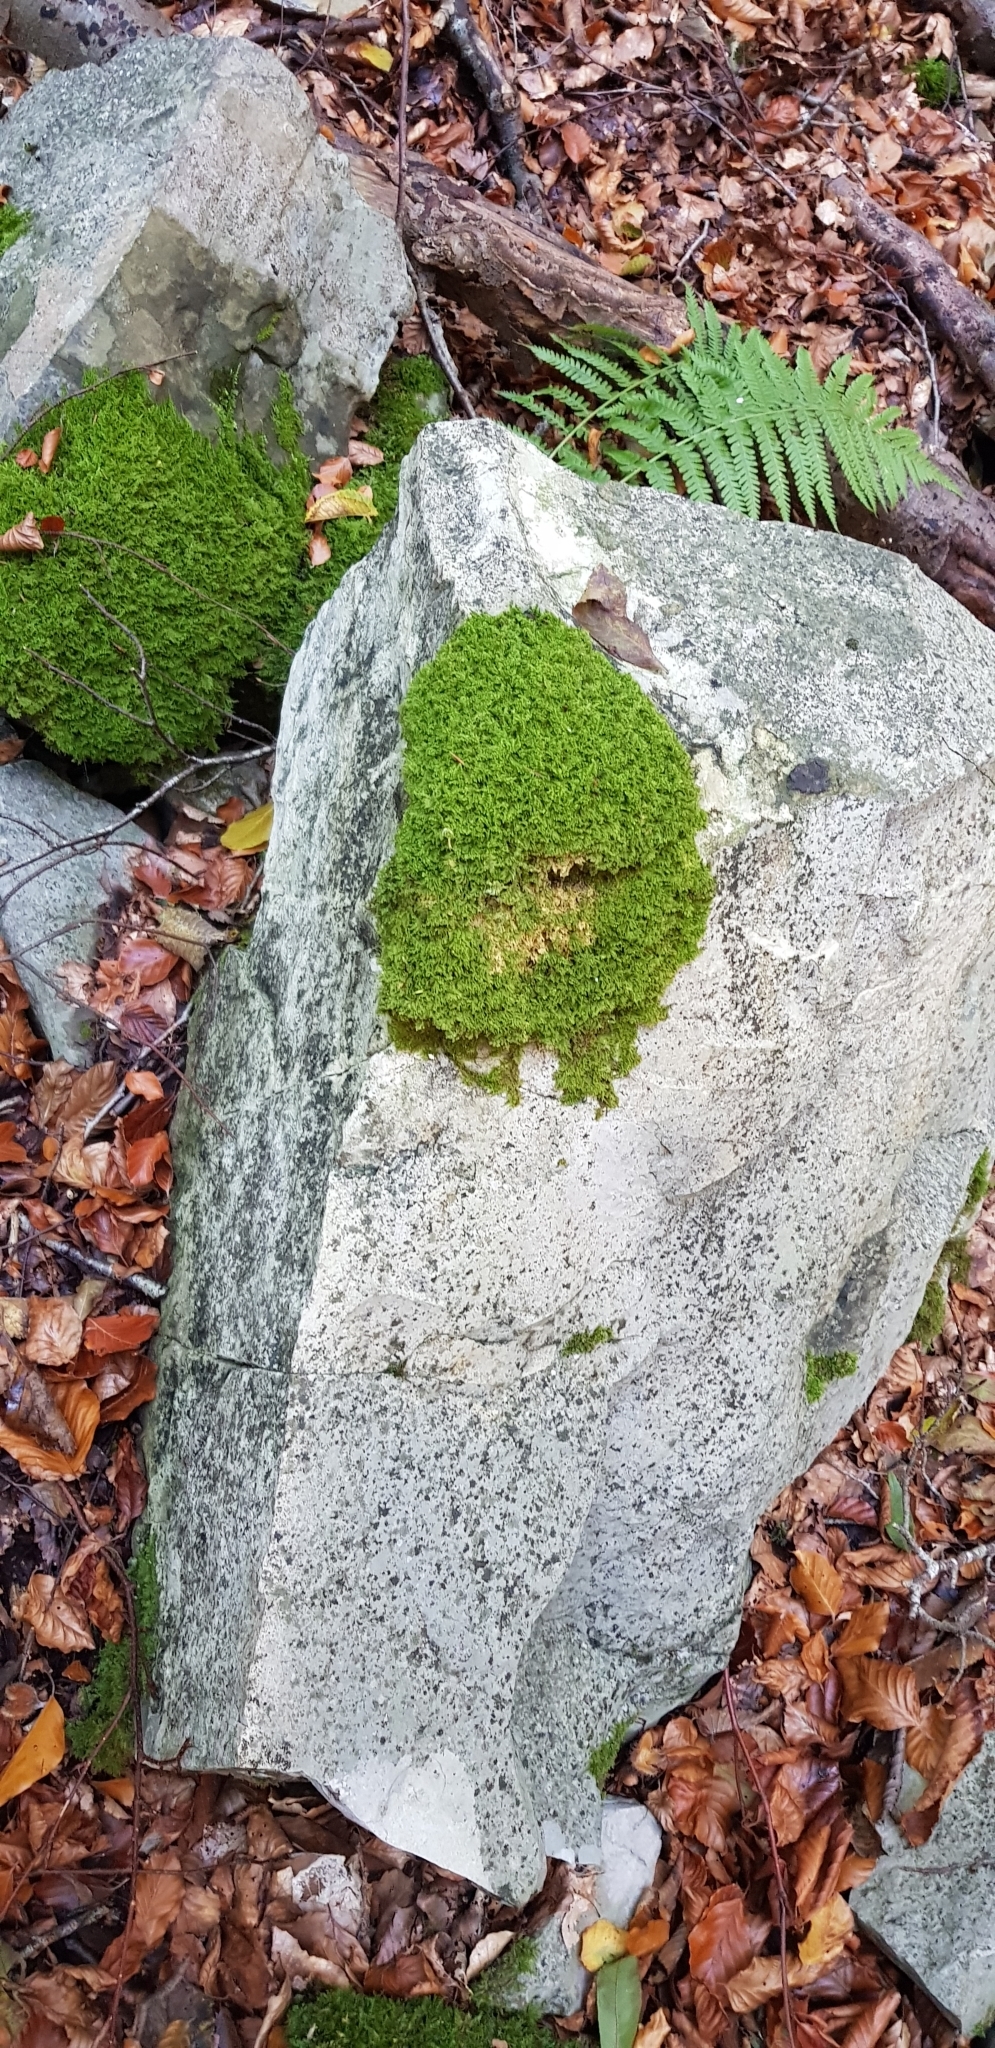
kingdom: Plantae
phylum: Bryophyta
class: Bryopsida
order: Hypnales
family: Myuriaceae
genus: Ctenidium
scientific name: Ctenidium molluscum
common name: Chalk comb-moss
